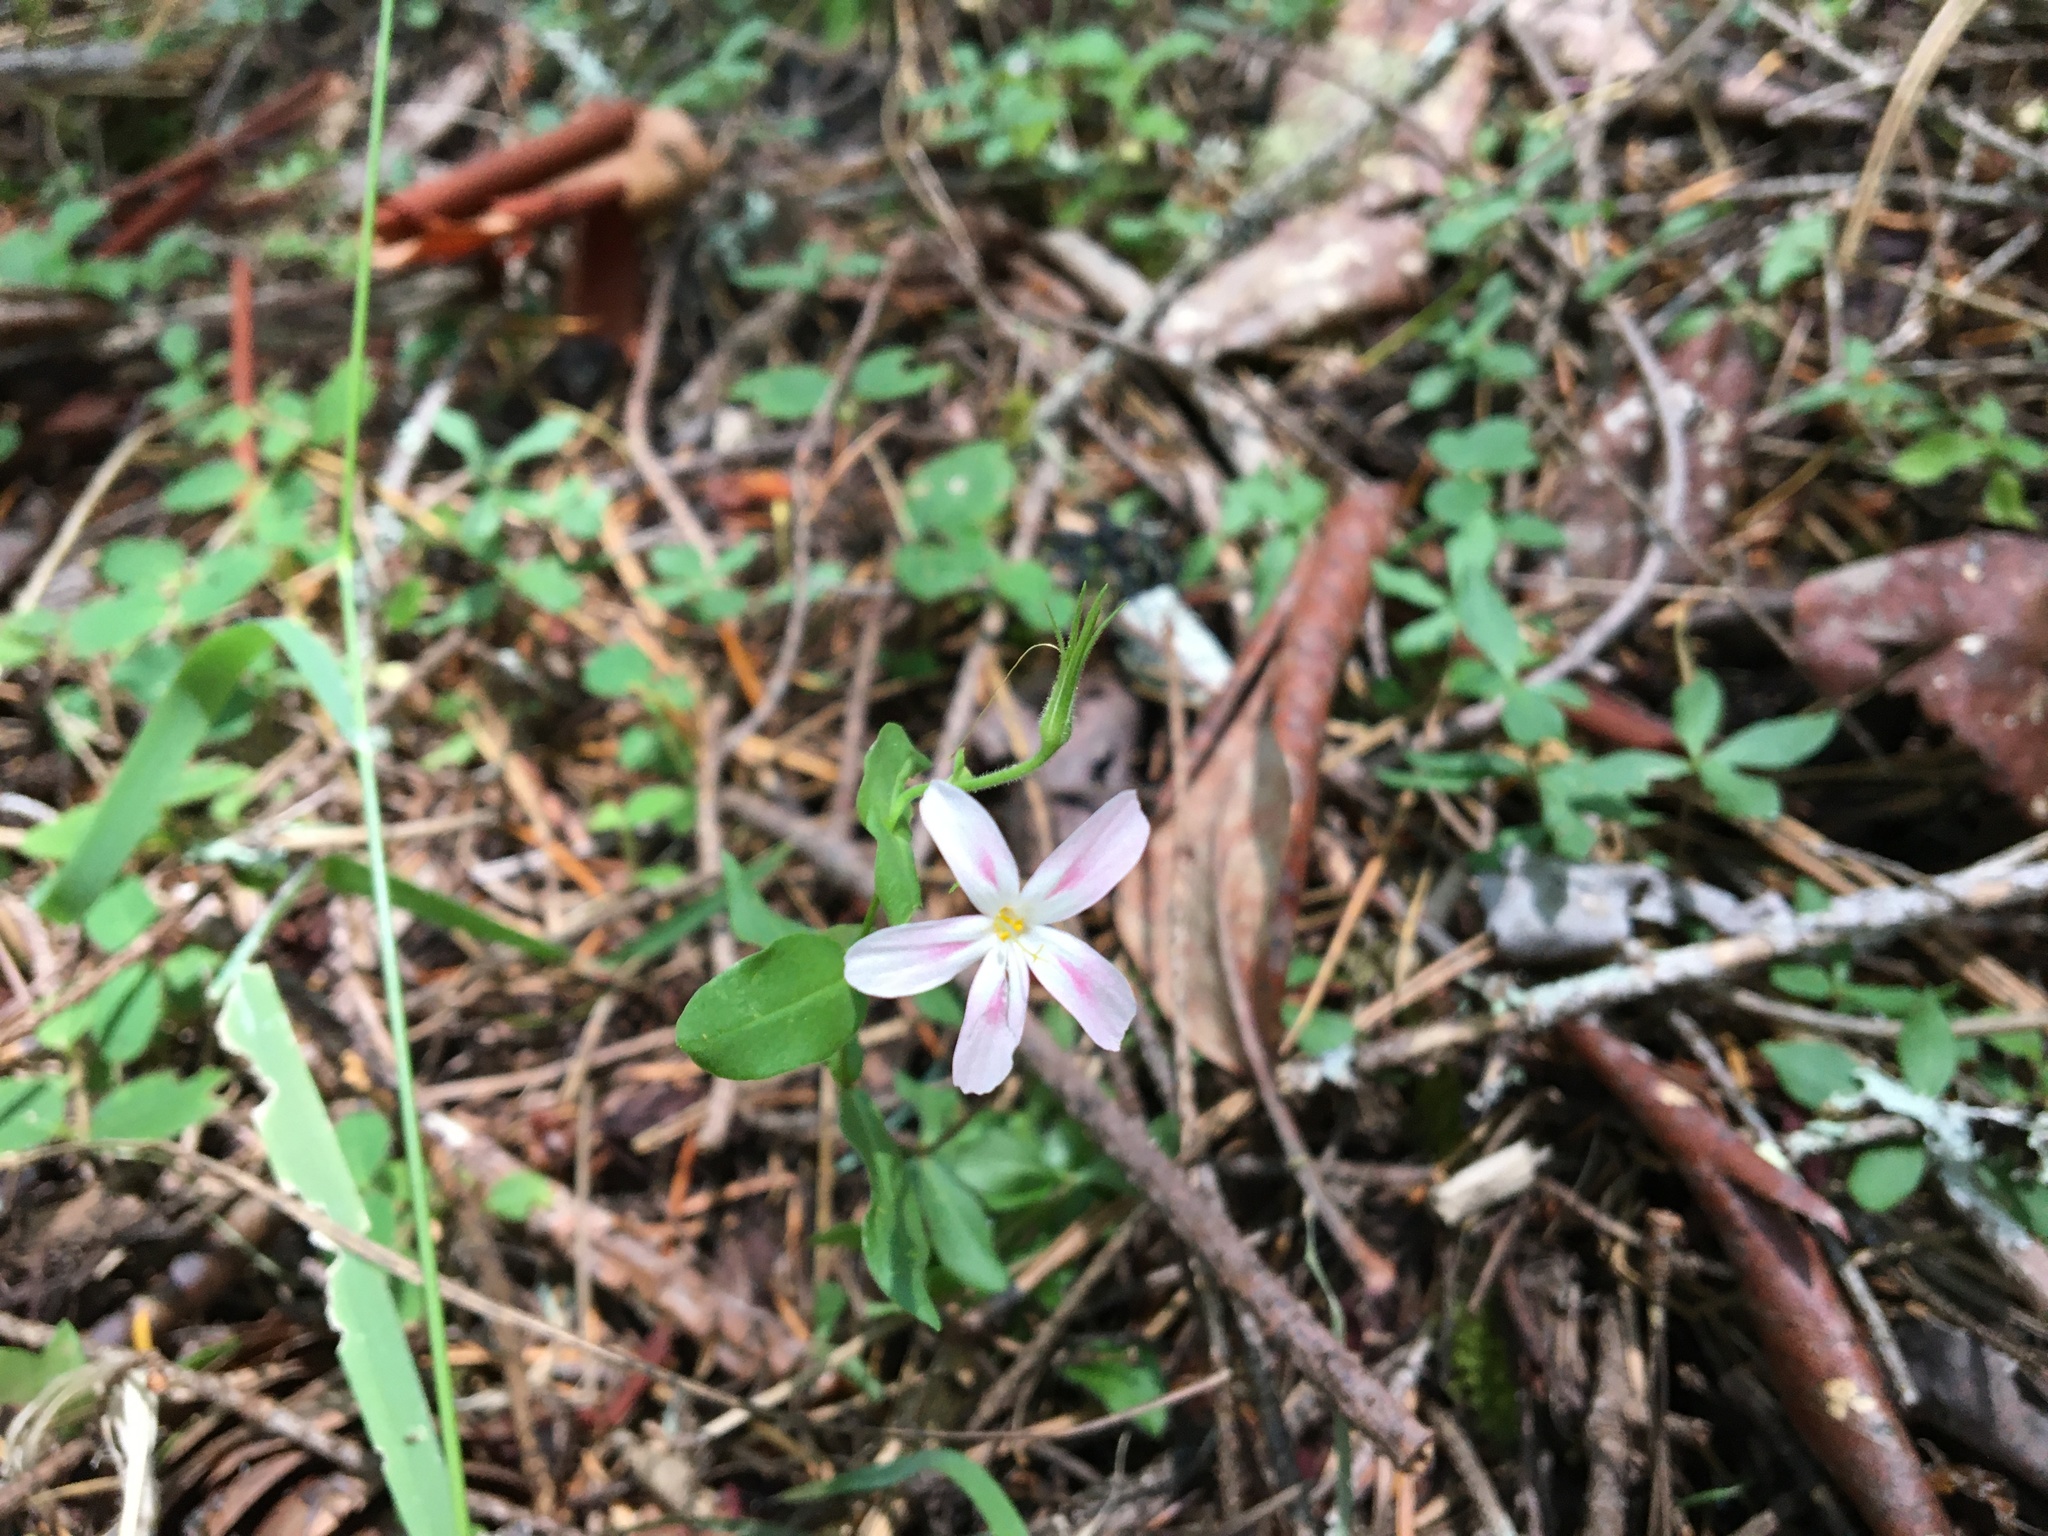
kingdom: Plantae
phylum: Tracheophyta
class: Magnoliopsida
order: Ericales
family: Polemoniaceae
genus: Phlox
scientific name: Phlox adsurgens
